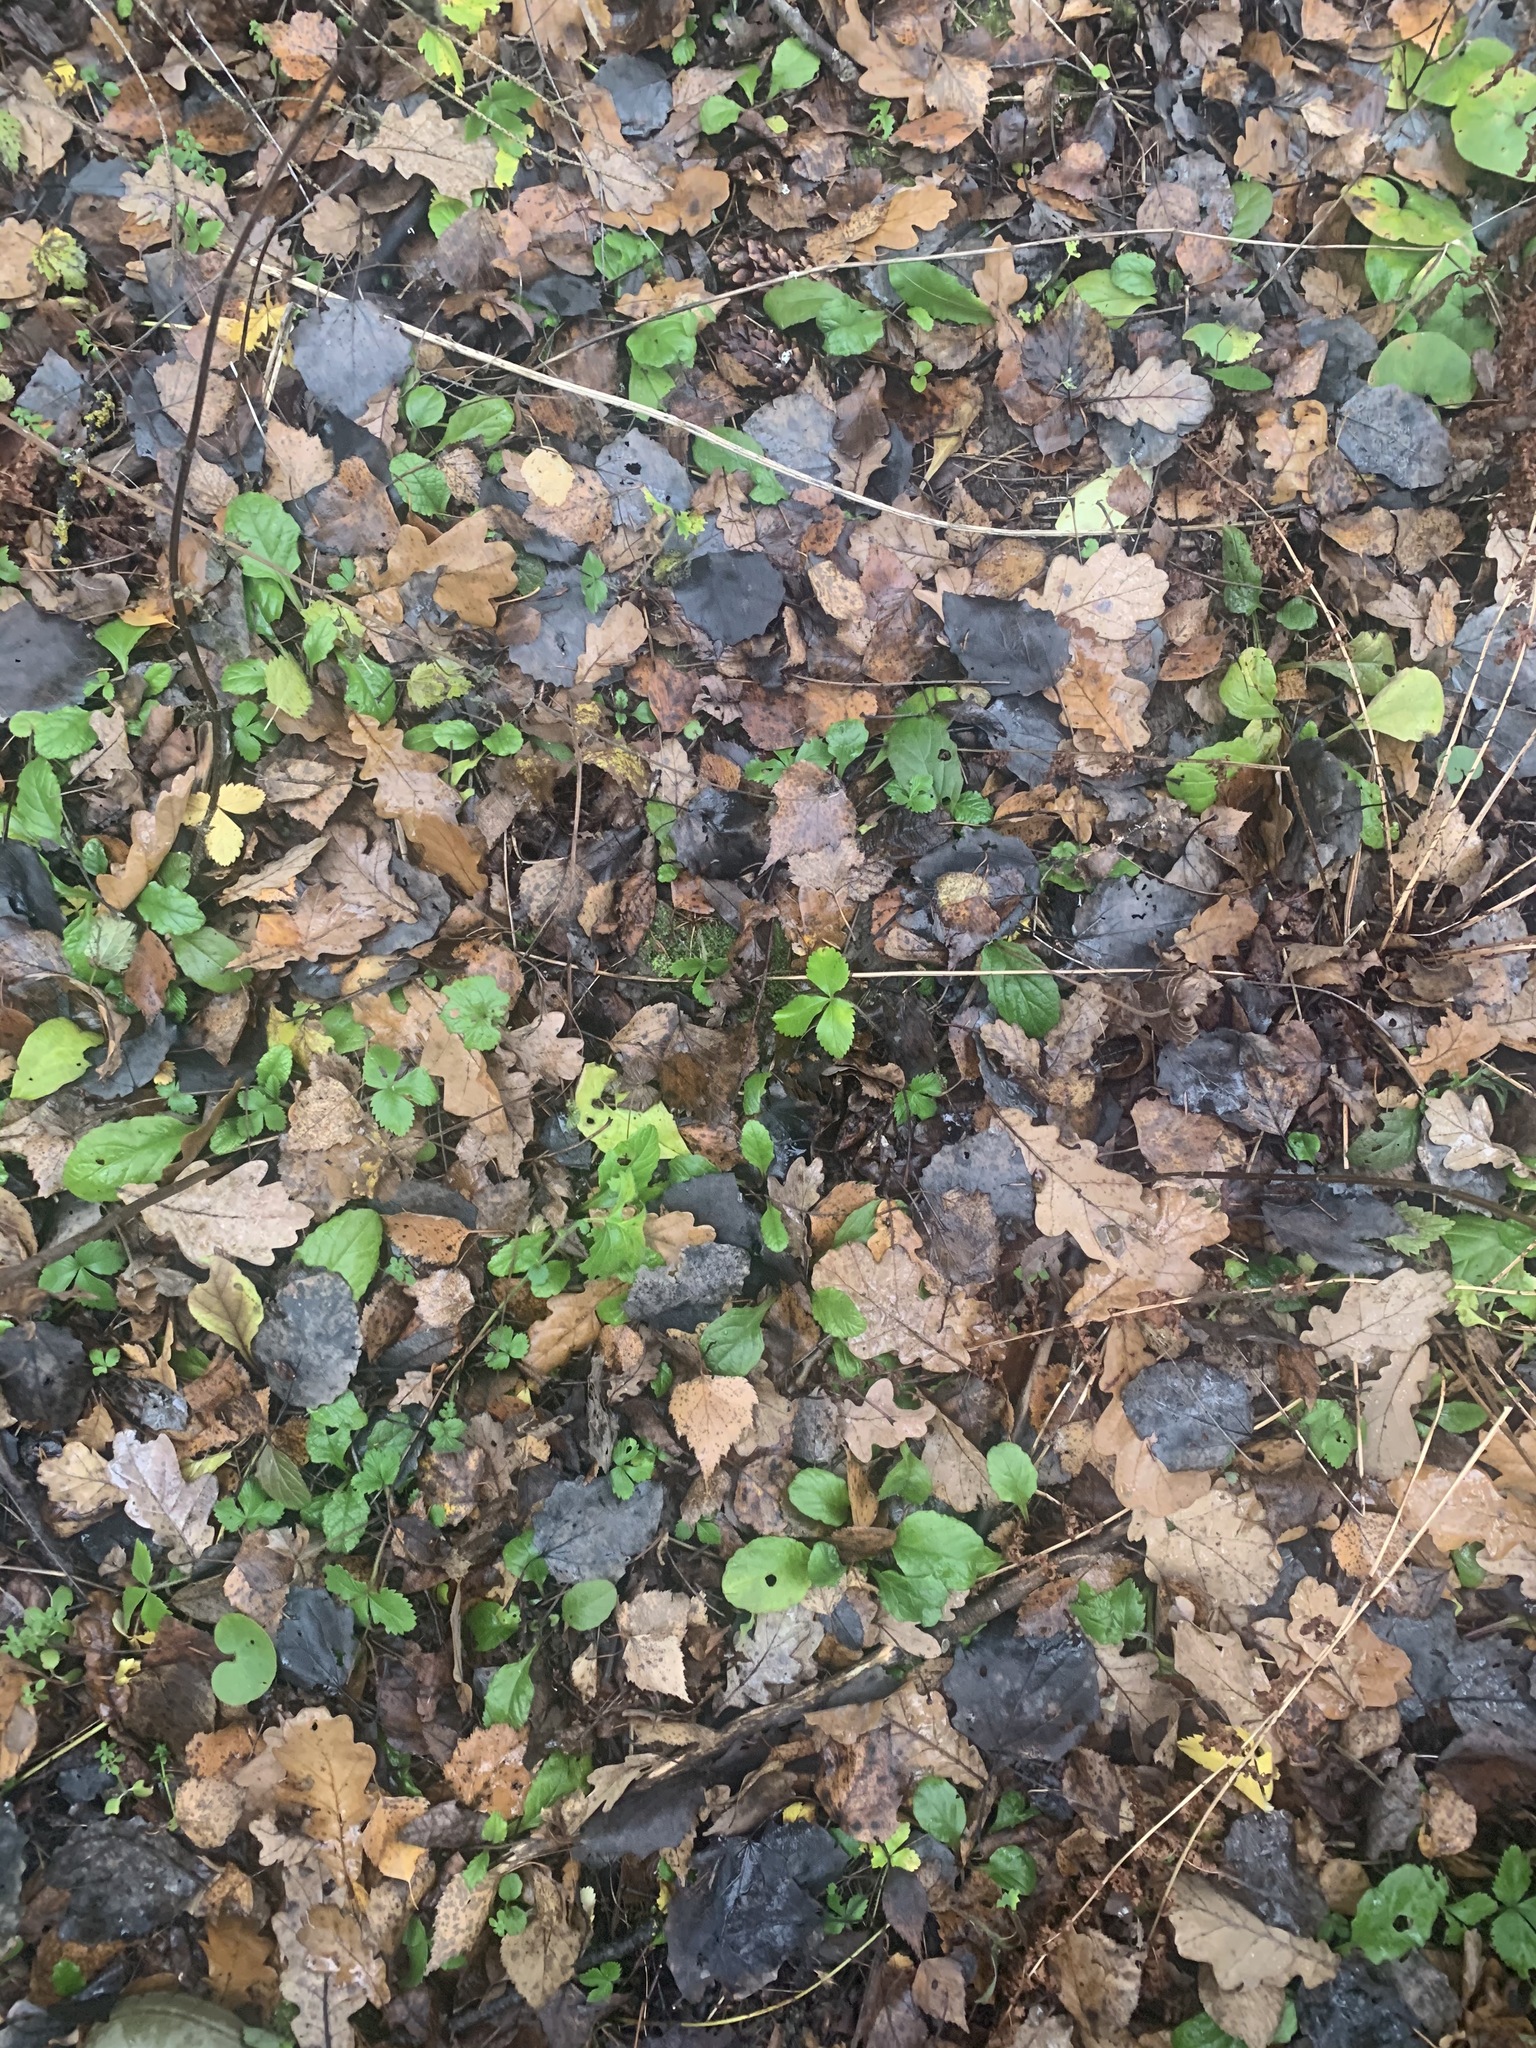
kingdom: Plantae
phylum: Tracheophyta
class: Magnoliopsida
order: Rosales
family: Rosaceae
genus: Fragaria
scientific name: Fragaria vesca
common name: Wild strawberry
